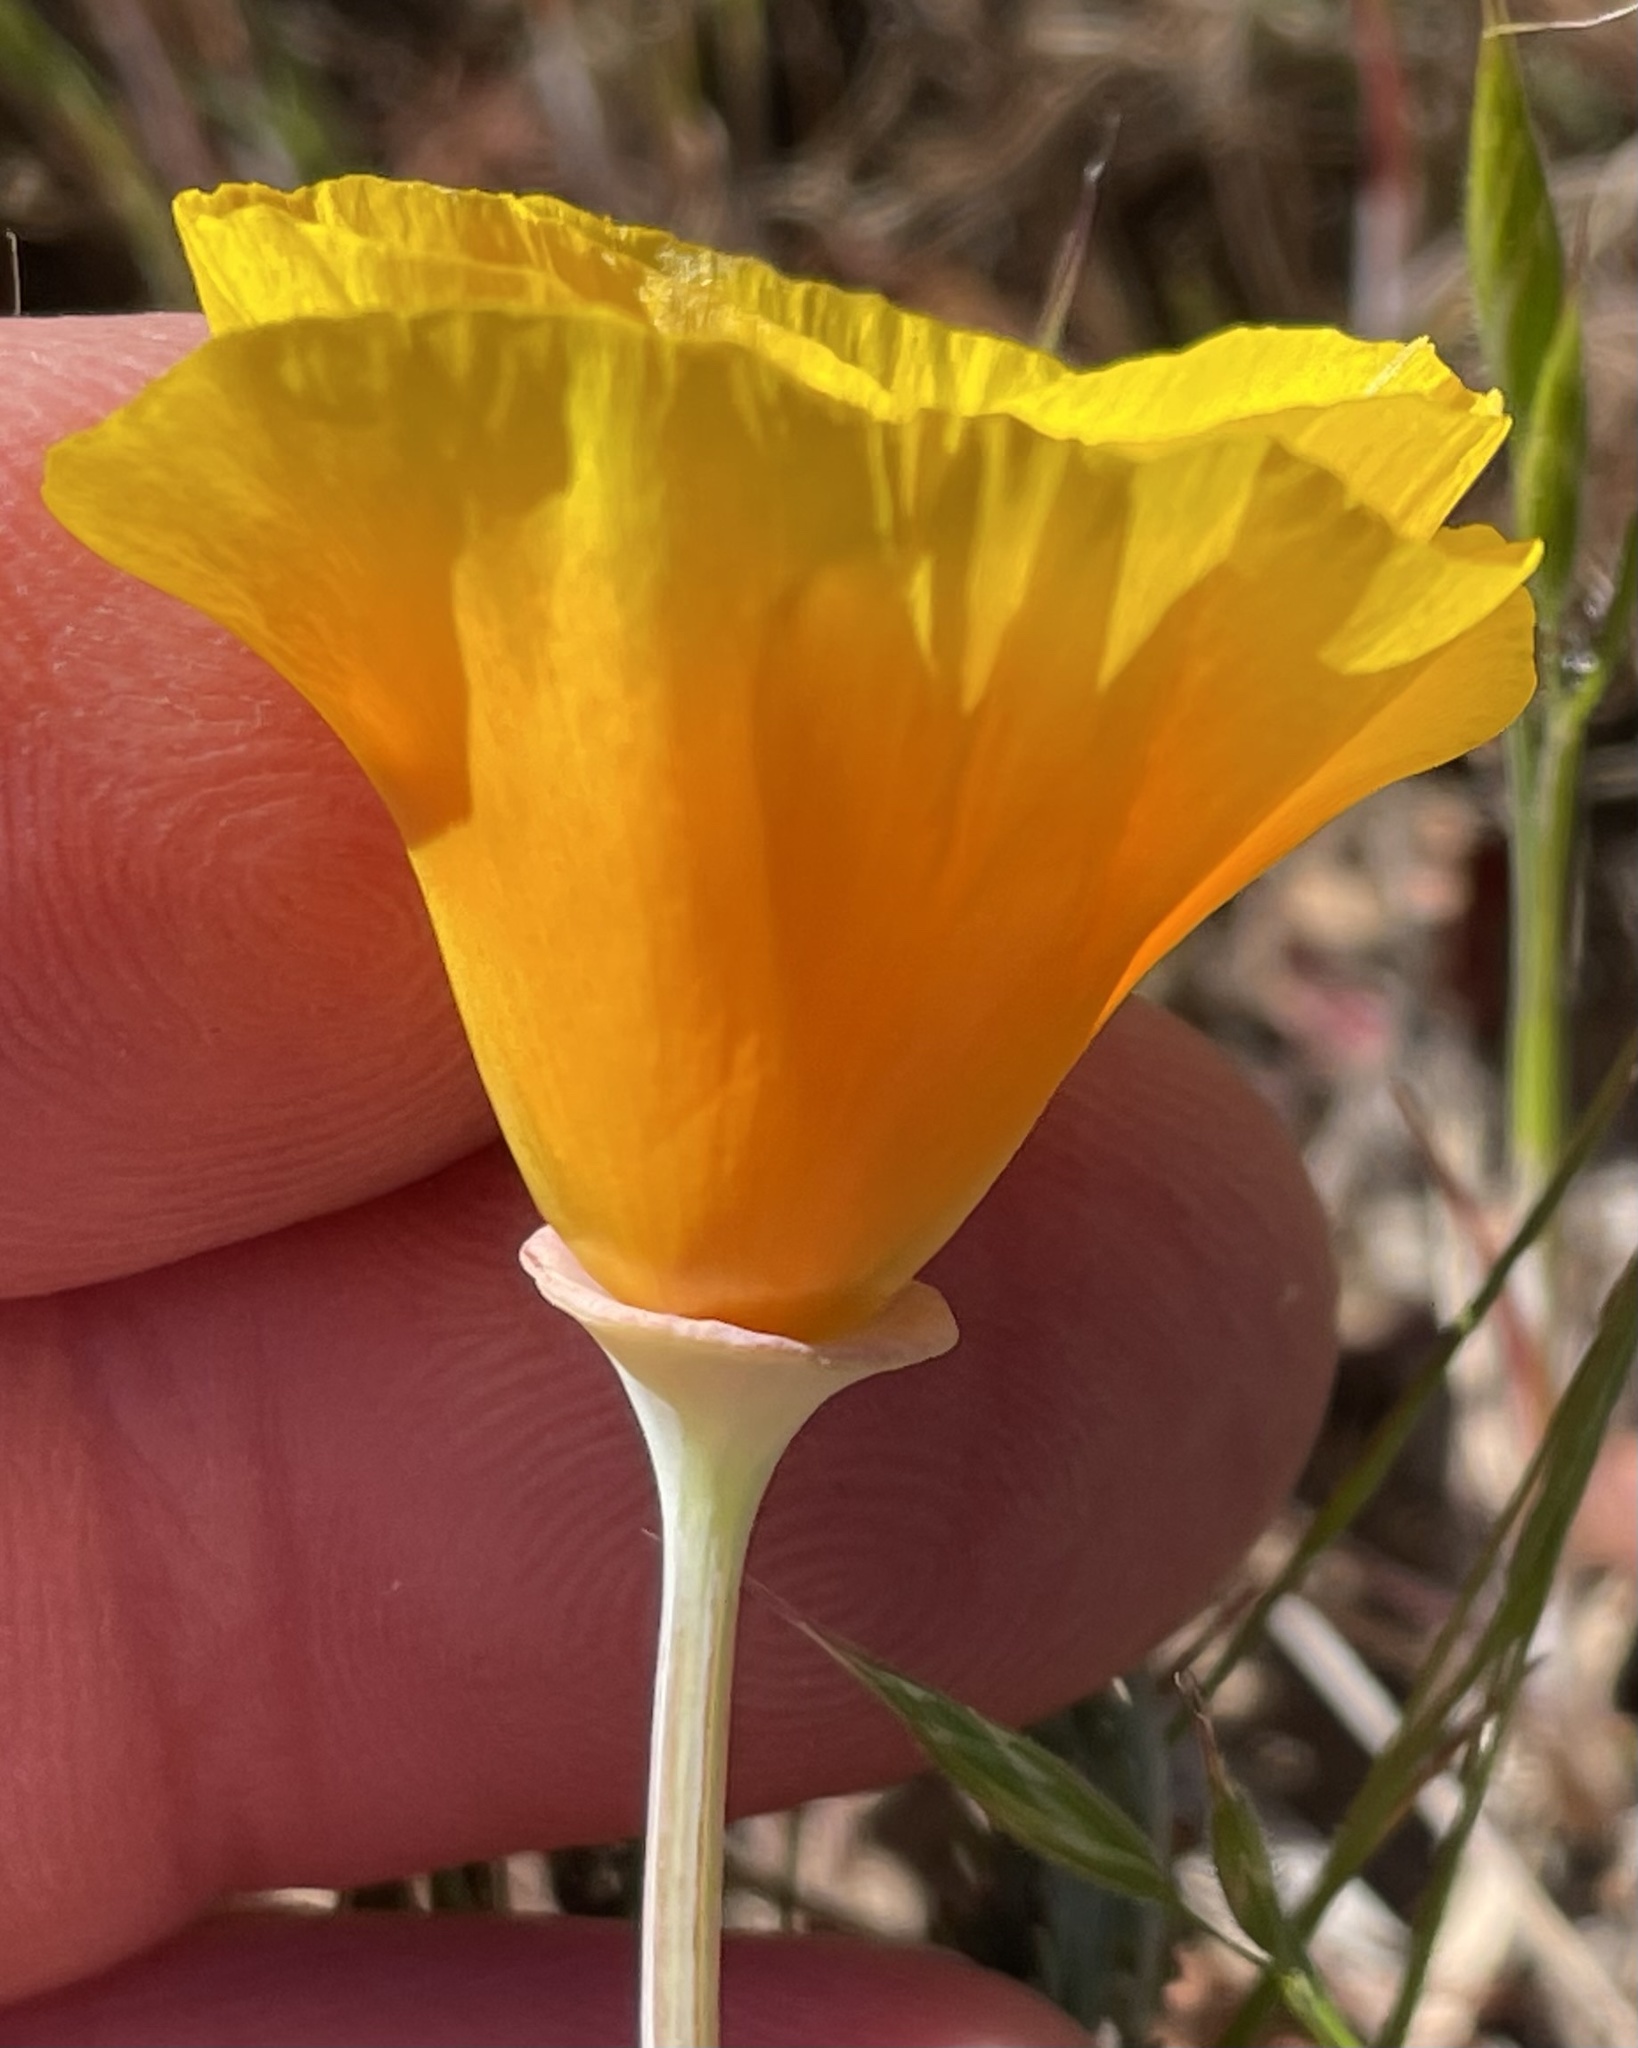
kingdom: Plantae
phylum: Tracheophyta
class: Magnoliopsida
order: Ranunculales
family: Papaveraceae
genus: Eschscholzia
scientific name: Eschscholzia californica
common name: California poppy
